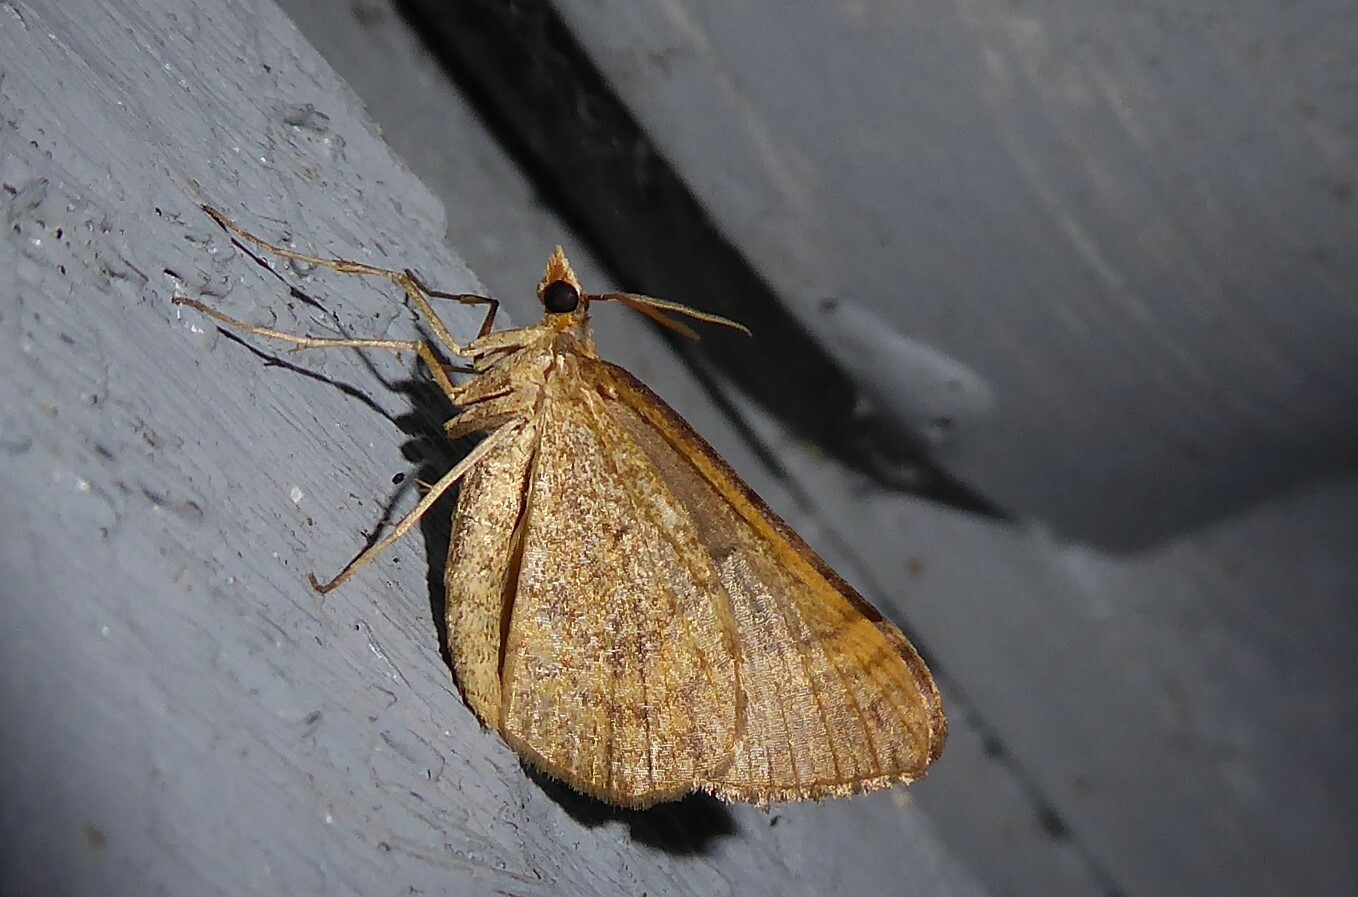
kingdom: Animalia
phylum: Arthropoda
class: Insecta
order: Lepidoptera
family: Geometridae
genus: Anachloris
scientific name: Anachloris subochraria
